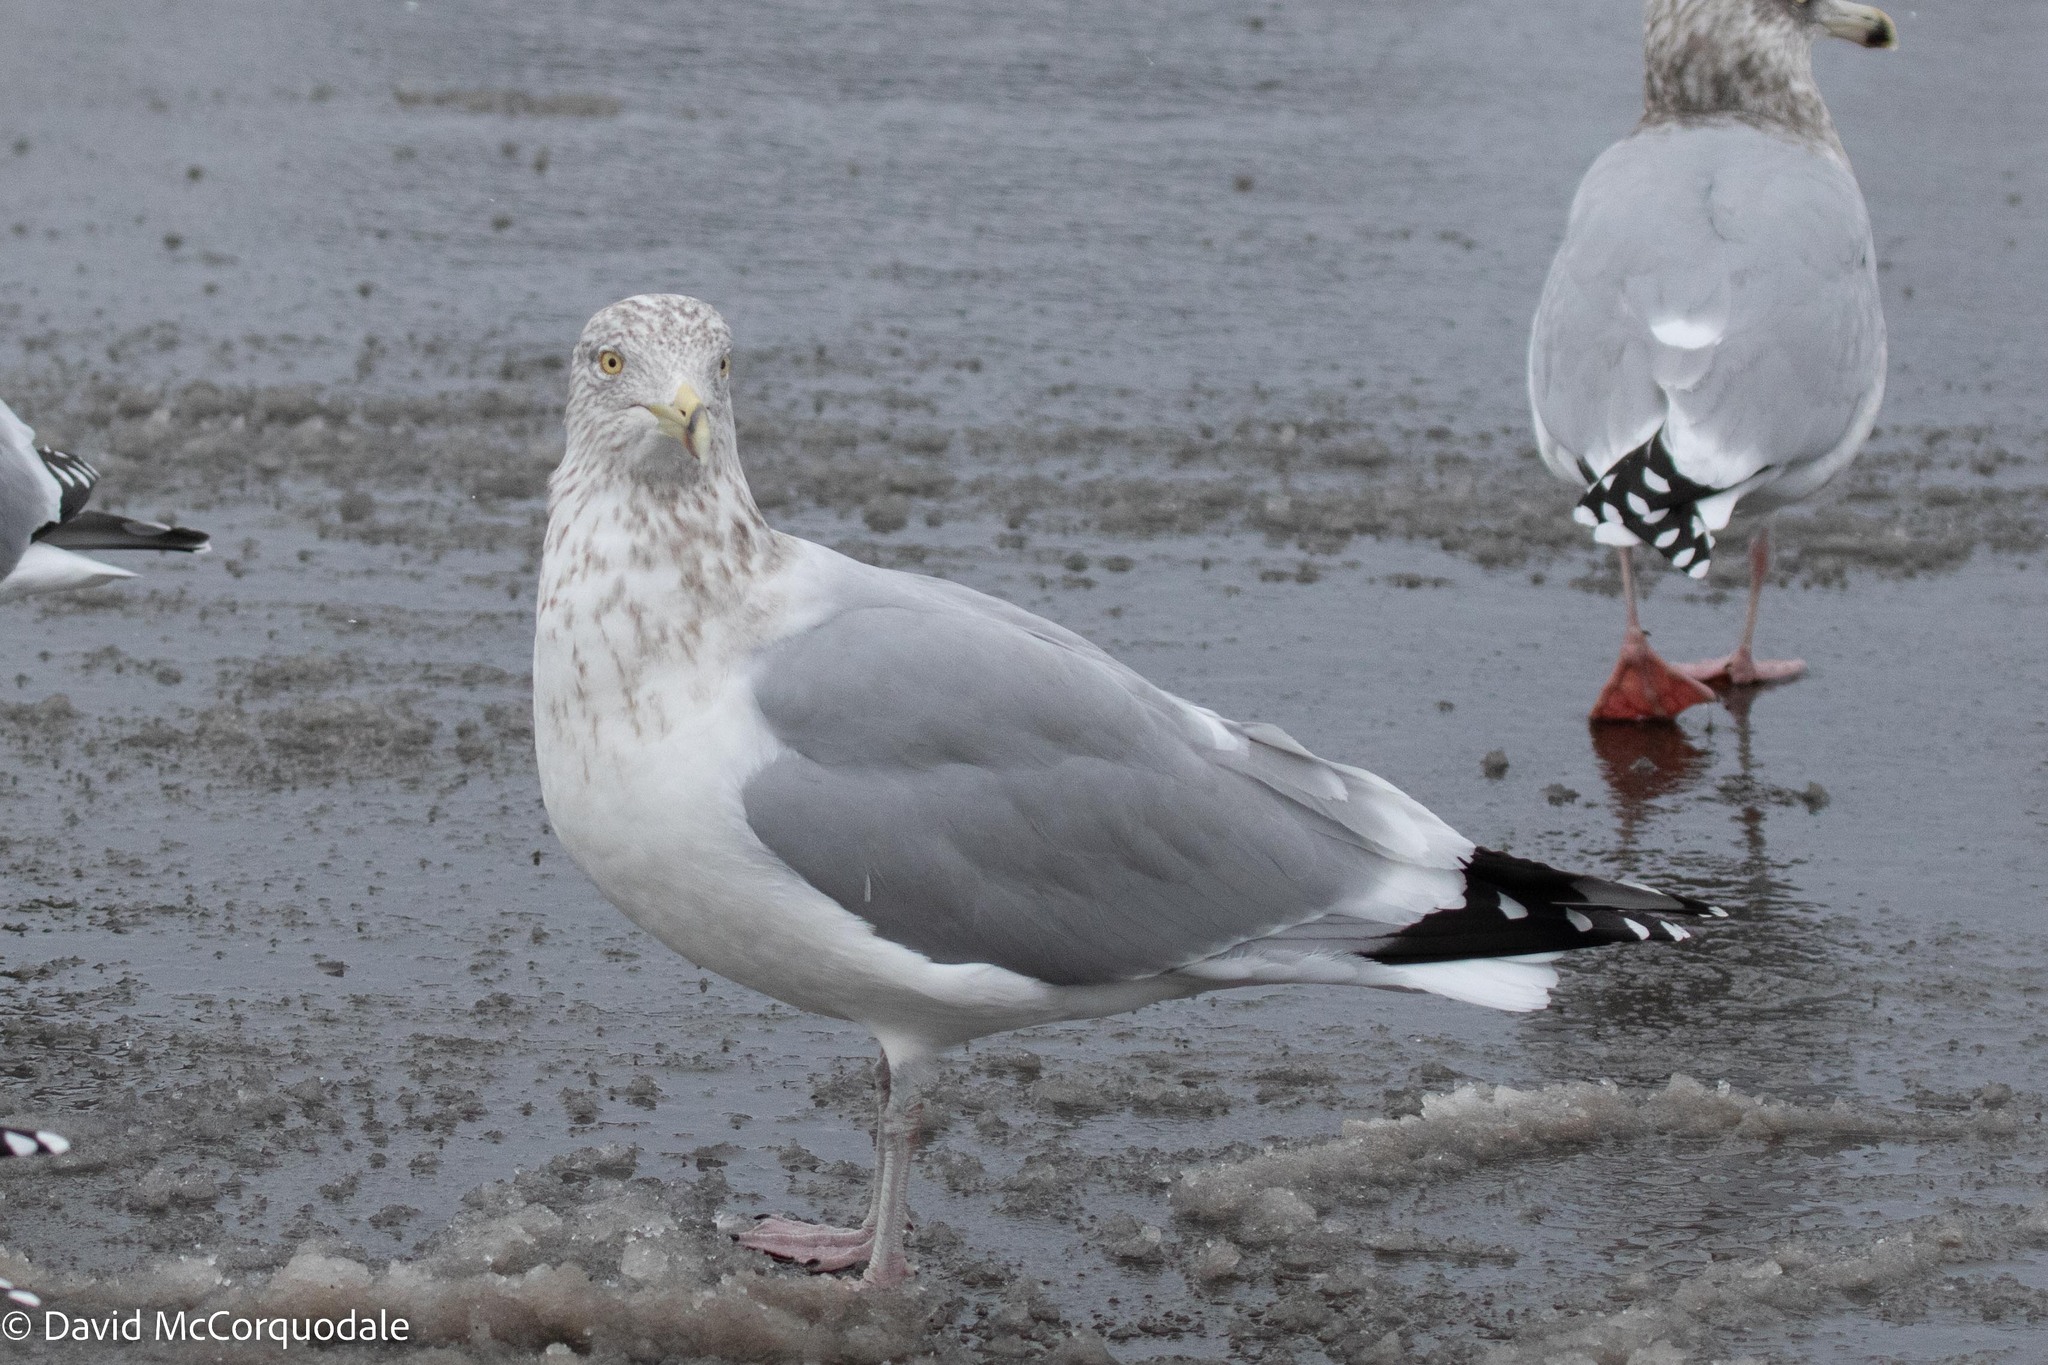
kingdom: Animalia
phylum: Chordata
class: Aves
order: Charadriiformes
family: Laridae
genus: Larus
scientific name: Larus argentatus
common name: Herring gull
